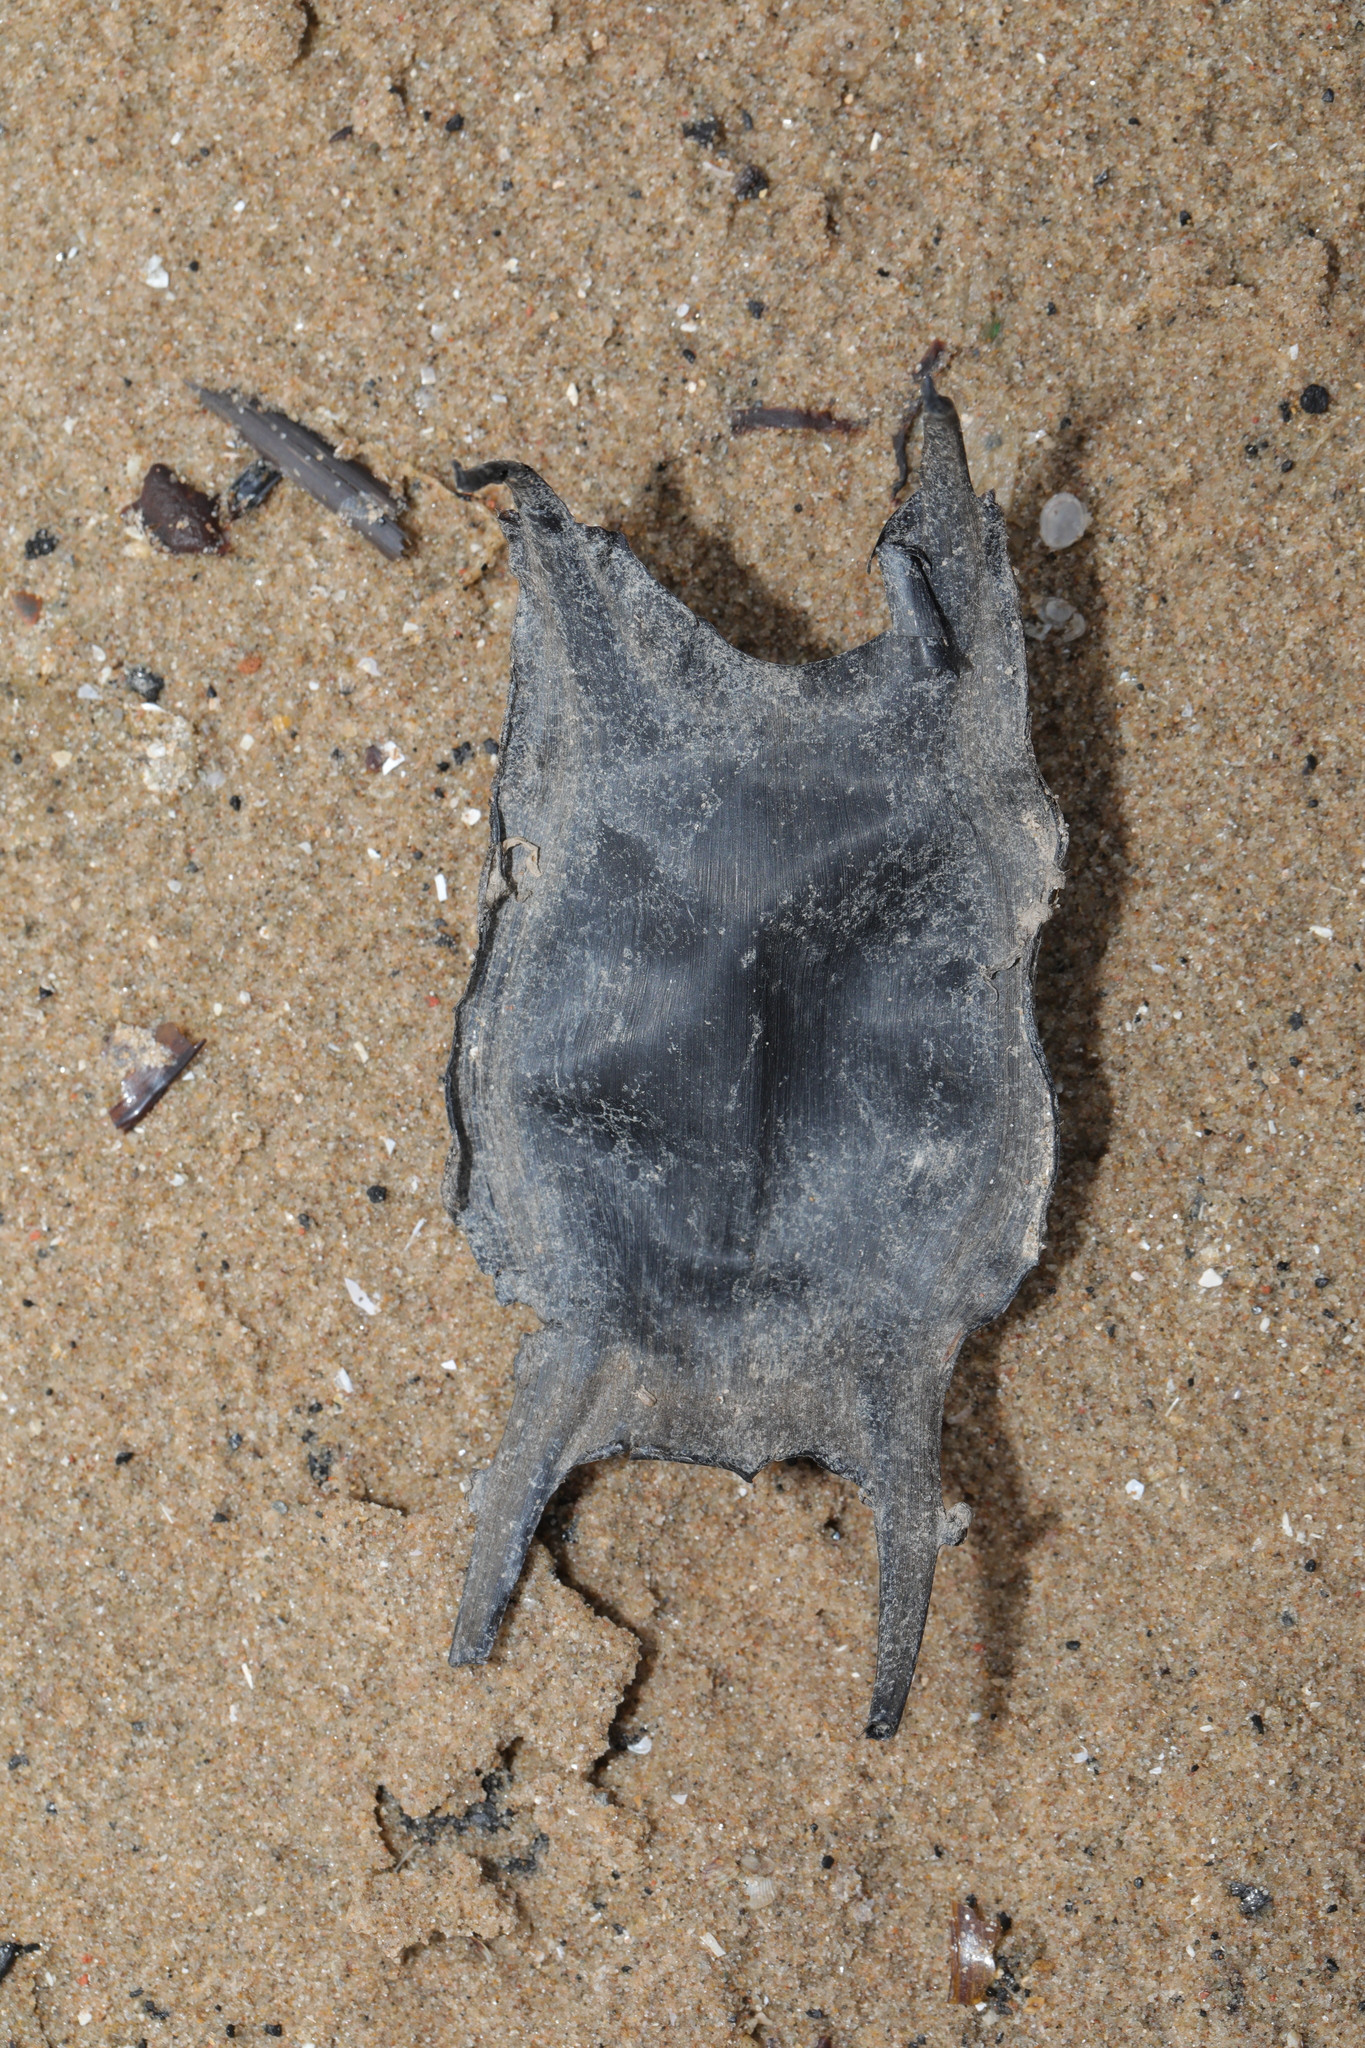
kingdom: Animalia
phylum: Chordata
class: Elasmobranchii
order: Rajiformes
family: Rajidae
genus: Raja
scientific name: Raja clavata
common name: Thornback ray
